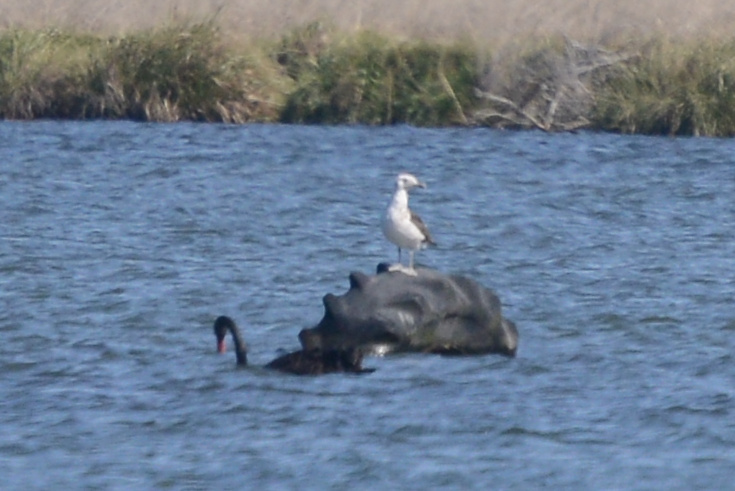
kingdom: Animalia
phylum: Chordata
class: Aves
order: Charadriiformes
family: Laridae
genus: Larus
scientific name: Larus dominicanus
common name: Kelp gull
